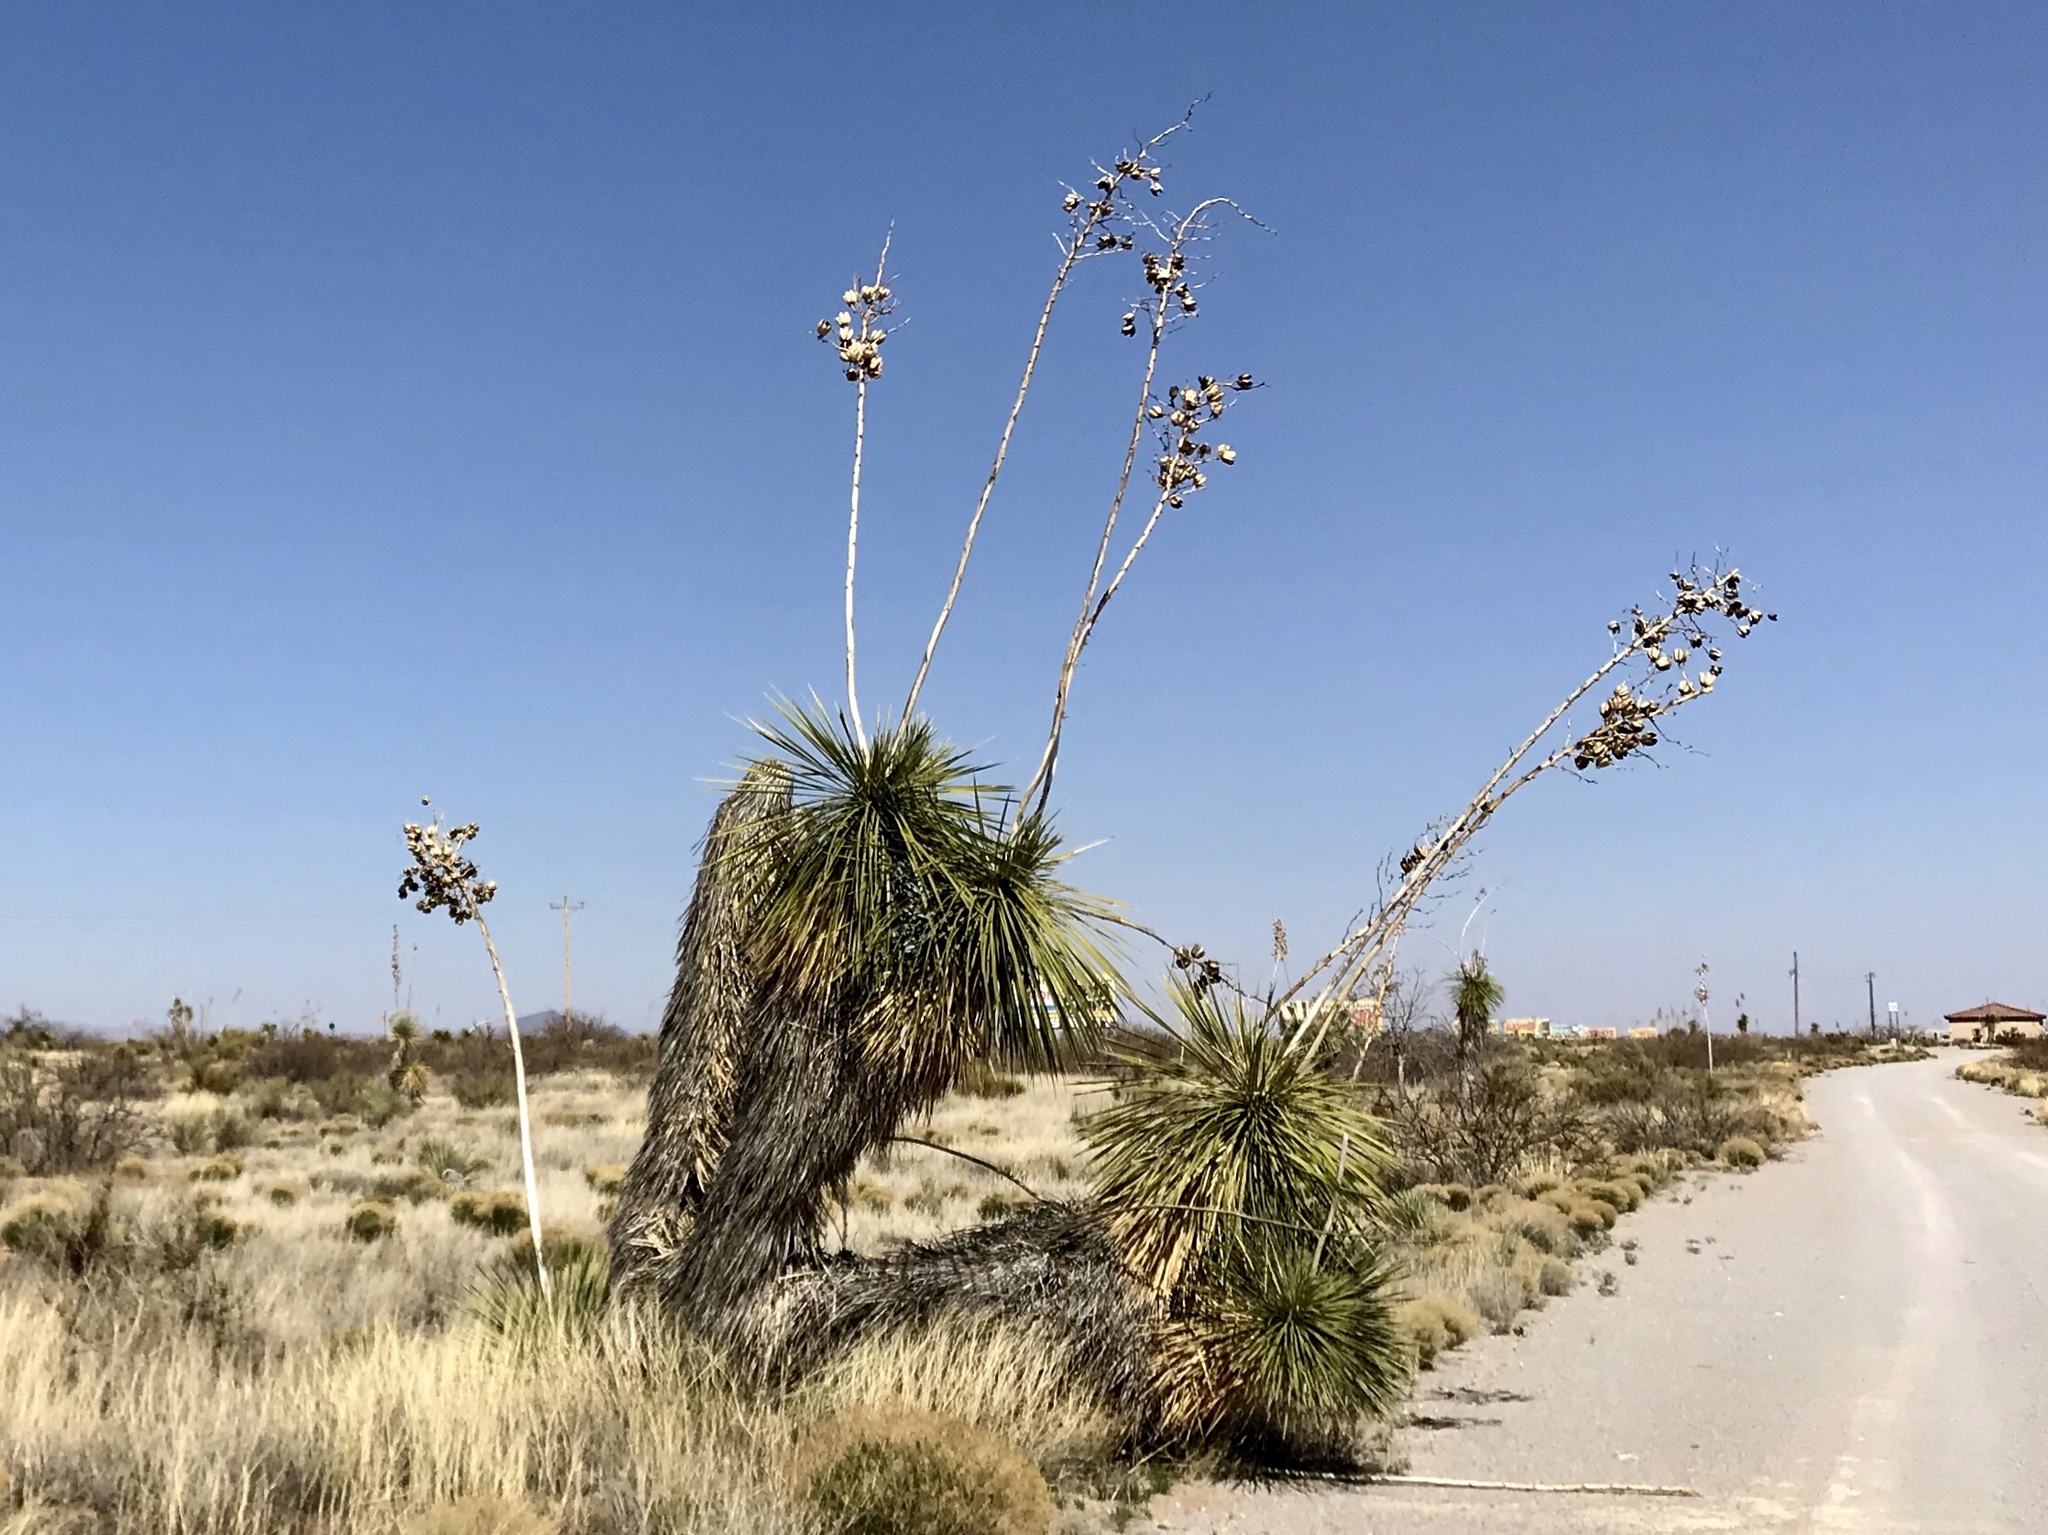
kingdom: Plantae
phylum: Tracheophyta
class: Liliopsida
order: Asparagales
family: Asparagaceae
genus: Yucca
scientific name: Yucca elata
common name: Palmella
